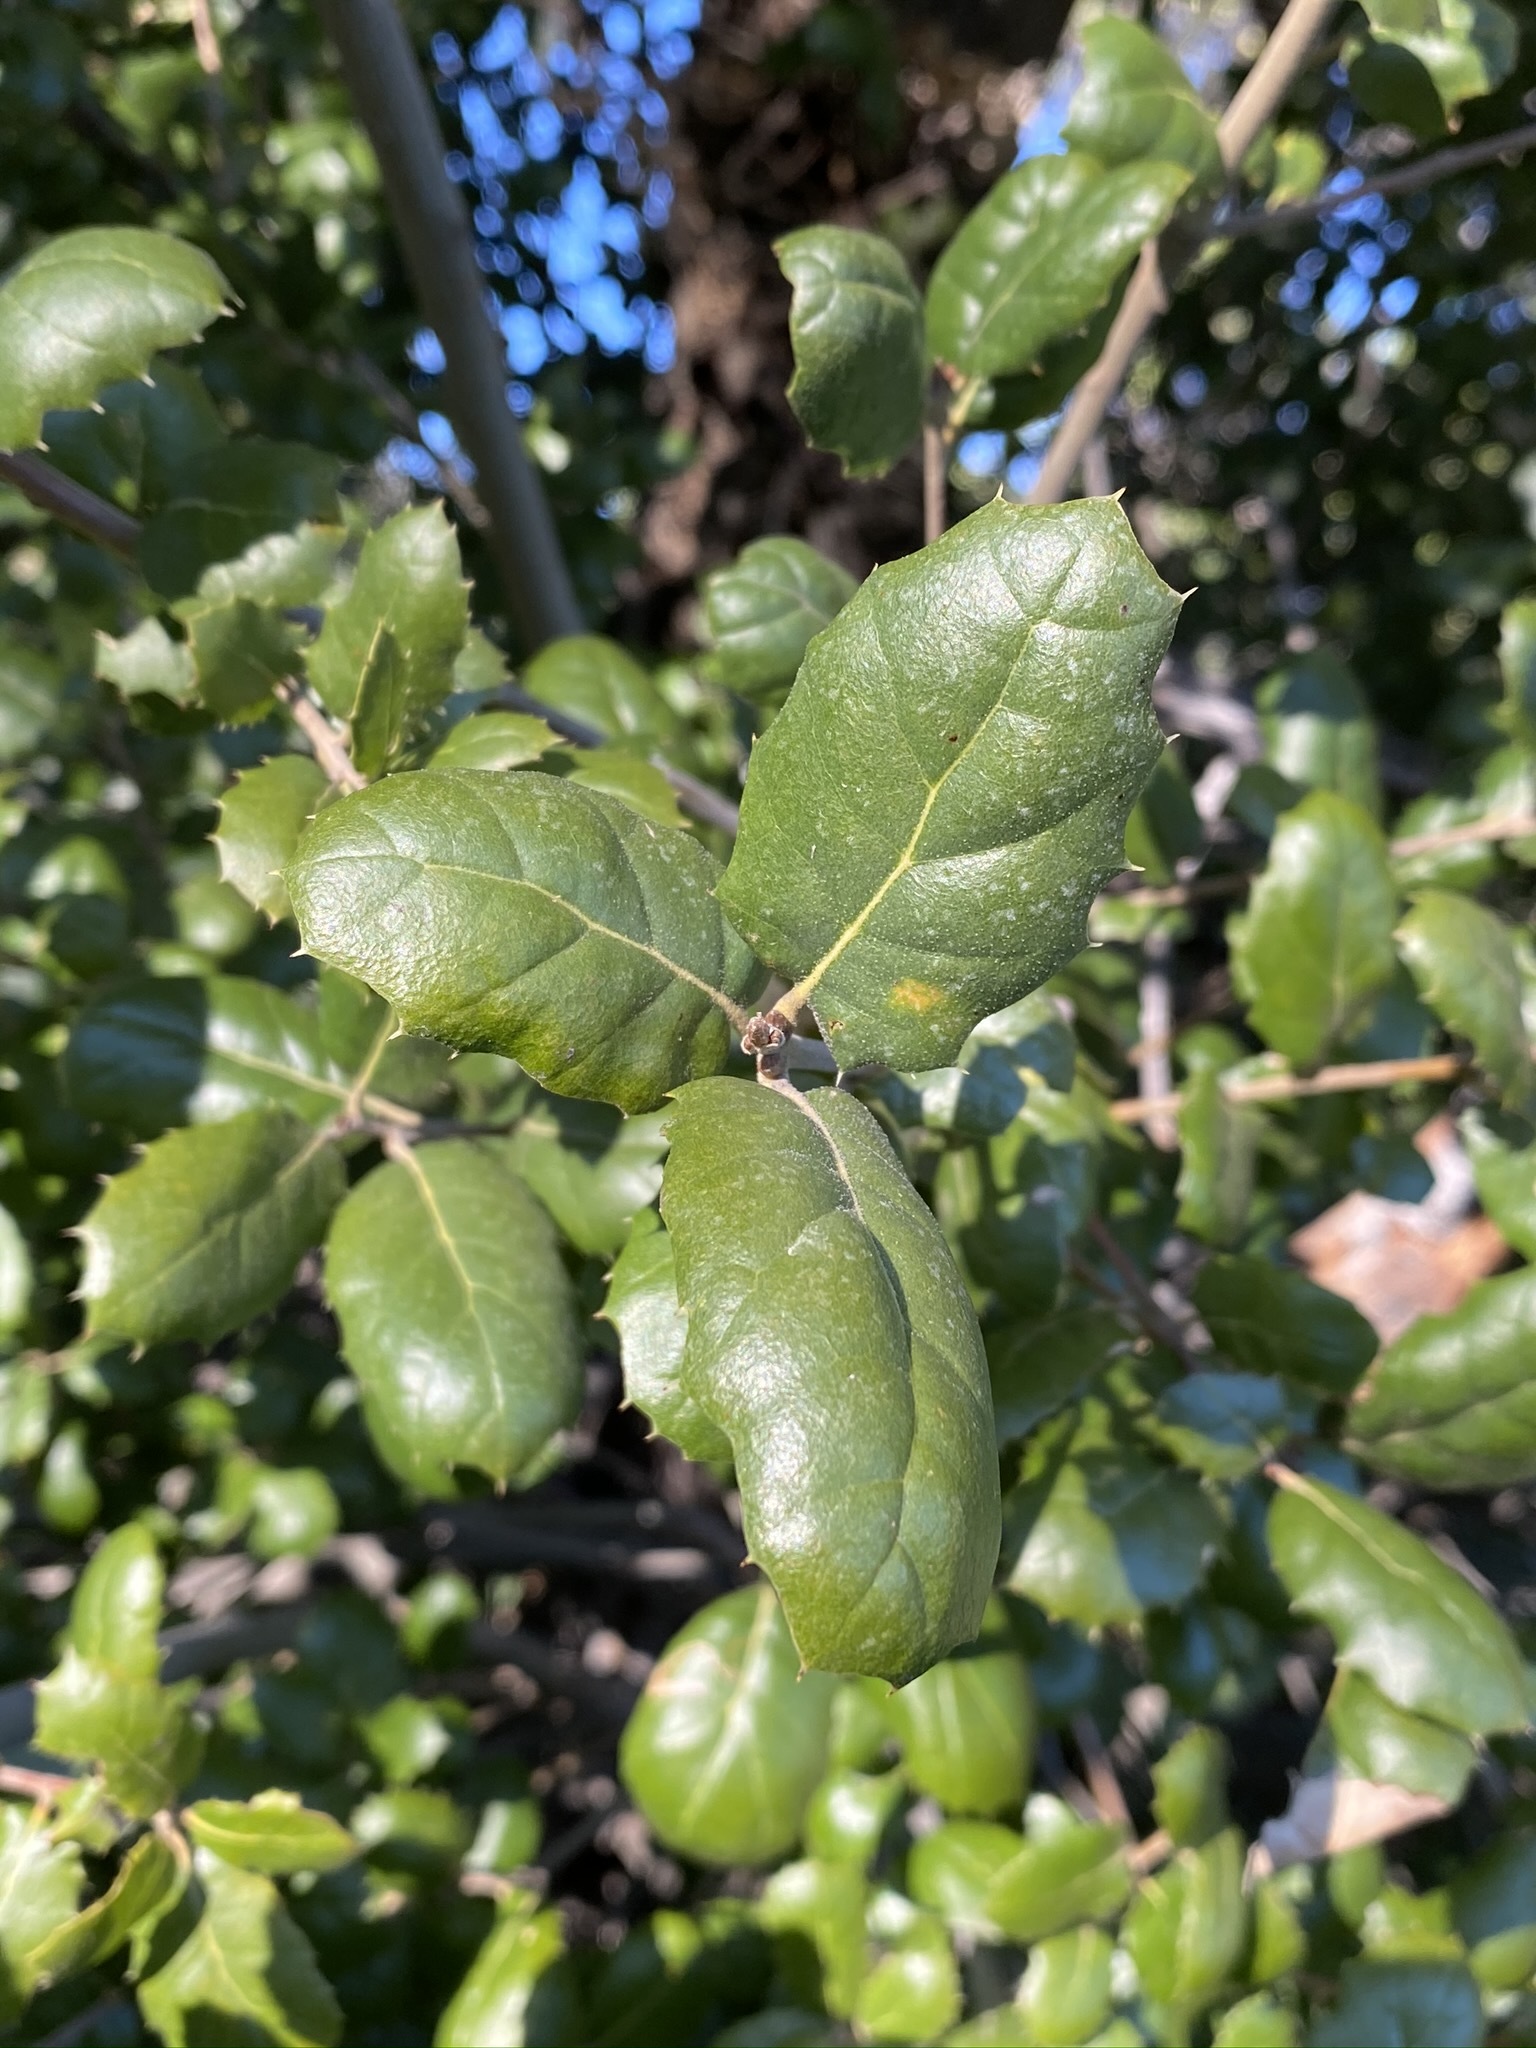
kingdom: Plantae
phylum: Tracheophyta
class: Magnoliopsida
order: Fagales
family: Fagaceae
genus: Quercus
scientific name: Quercus agrifolia
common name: California live oak
